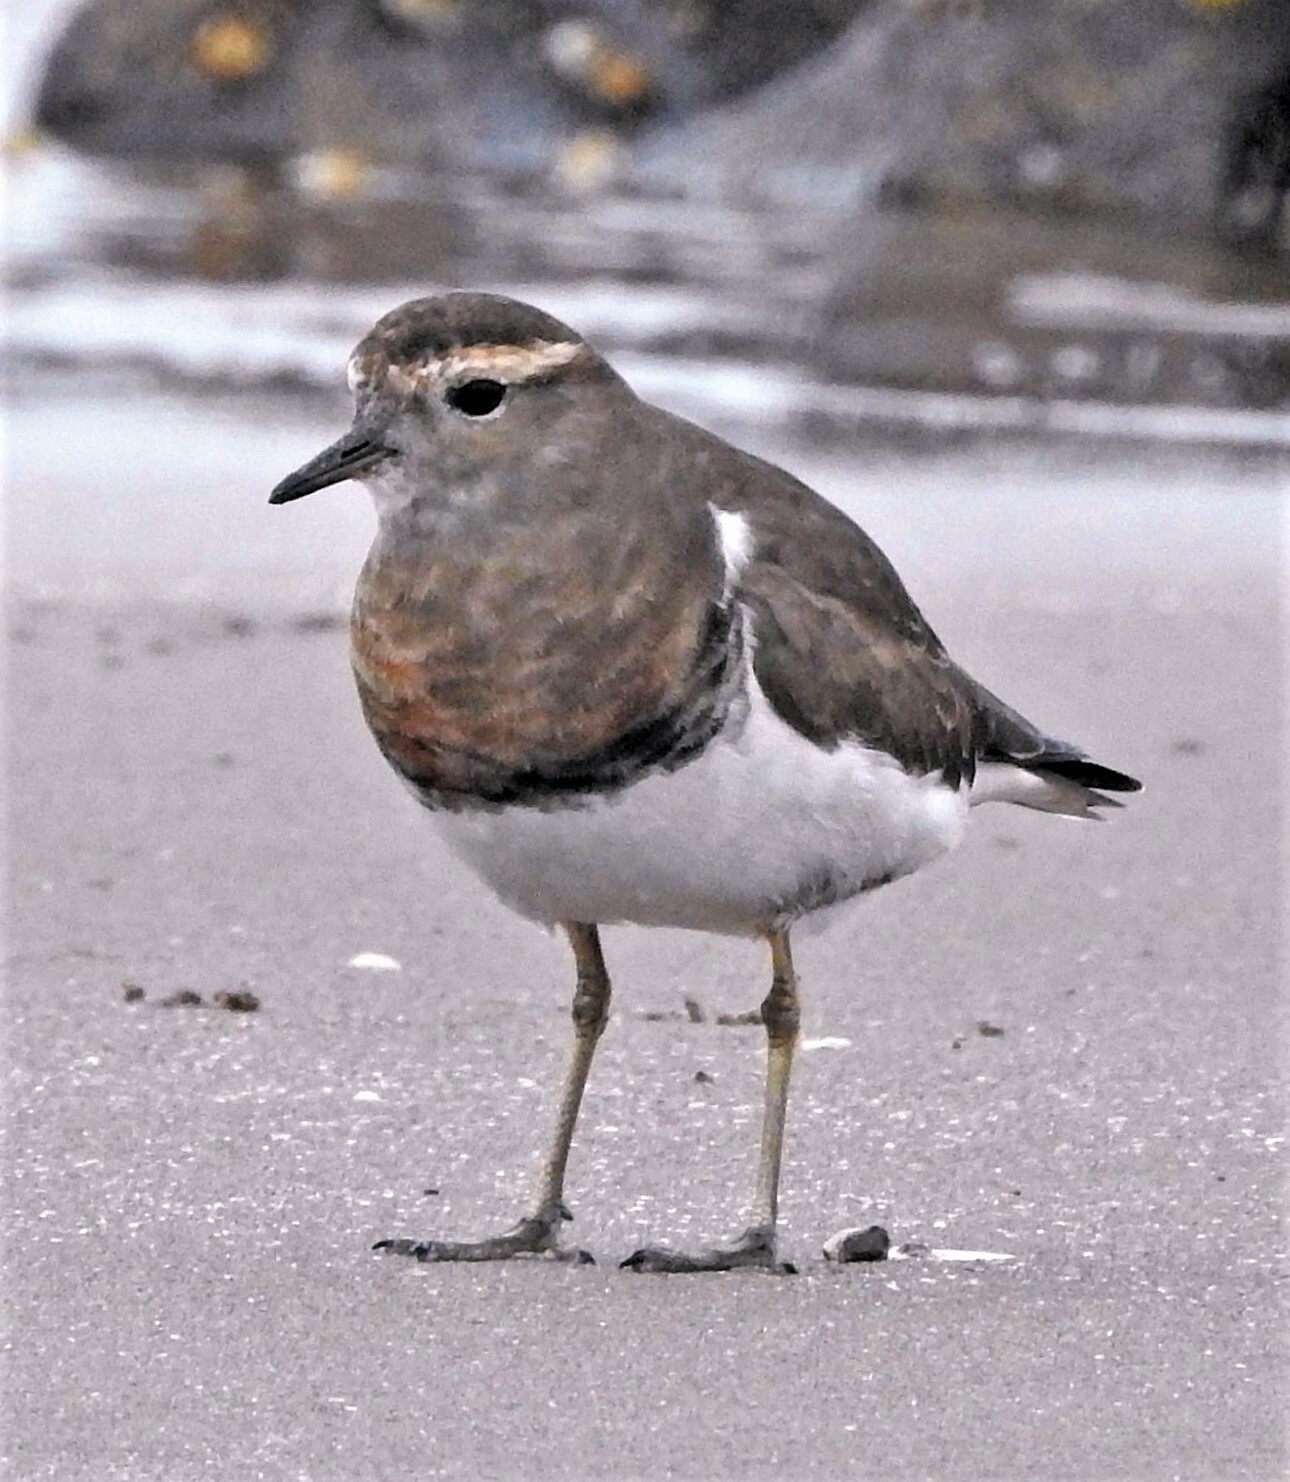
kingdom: Animalia
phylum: Chordata
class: Aves
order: Charadriiformes
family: Charadriidae
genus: Charadrius
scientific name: Charadrius modestus
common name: Rufous-chested plover
